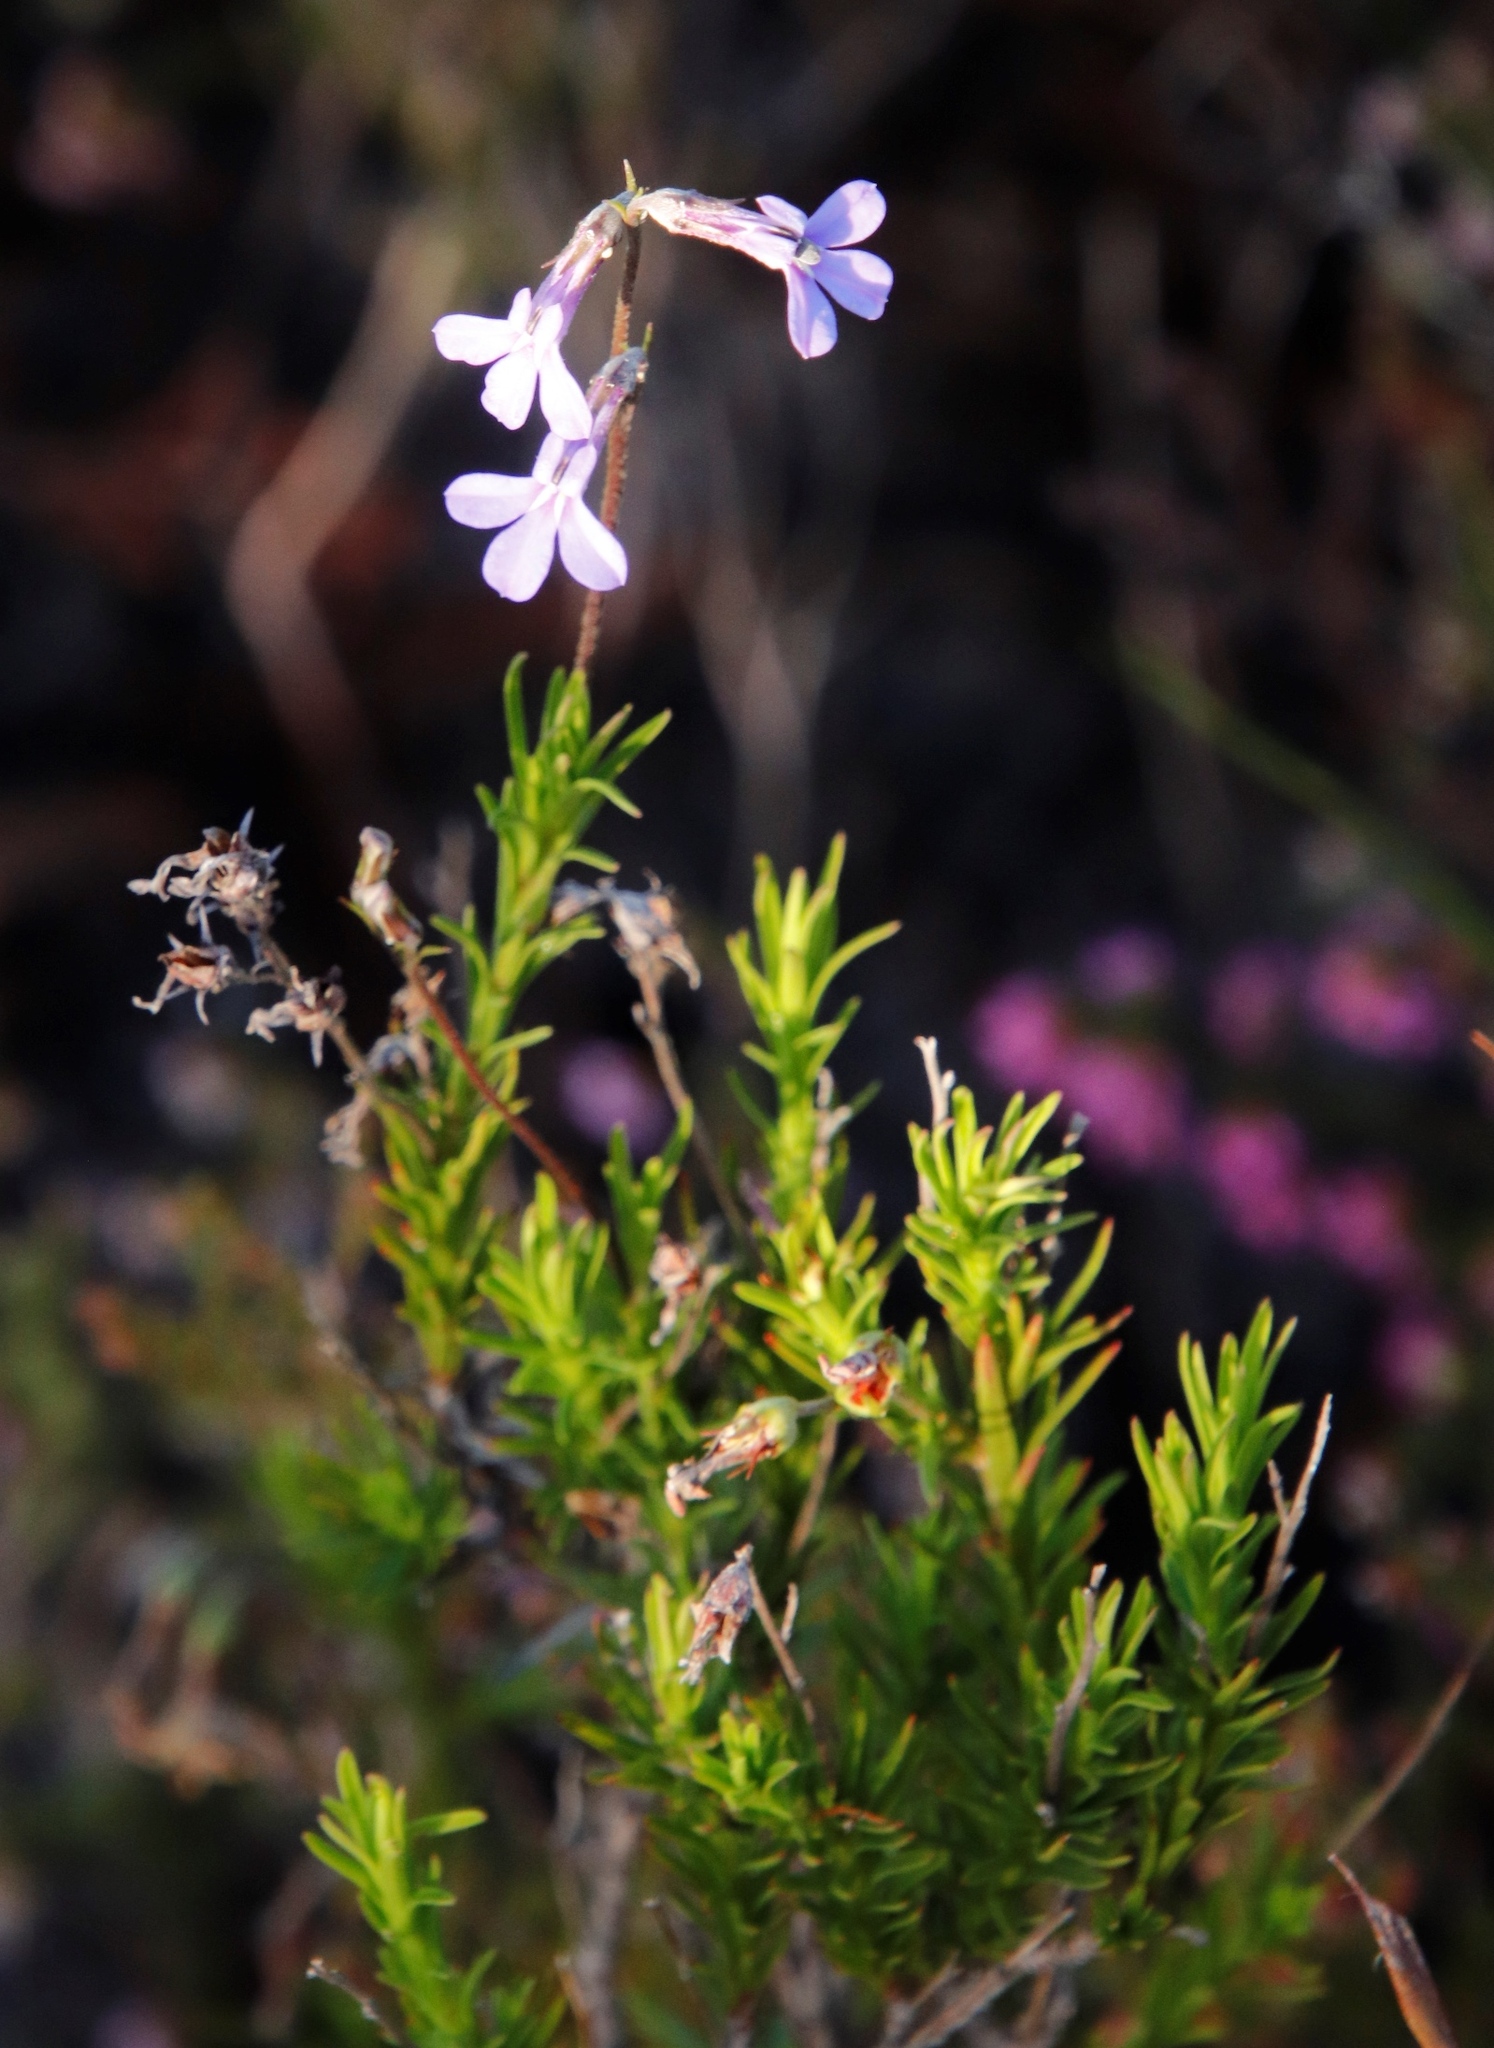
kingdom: Plantae
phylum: Tracheophyta
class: Magnoliopsida
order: Asterales
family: Campanulaceae
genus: Lobelia
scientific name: Lobelia pinifolia
